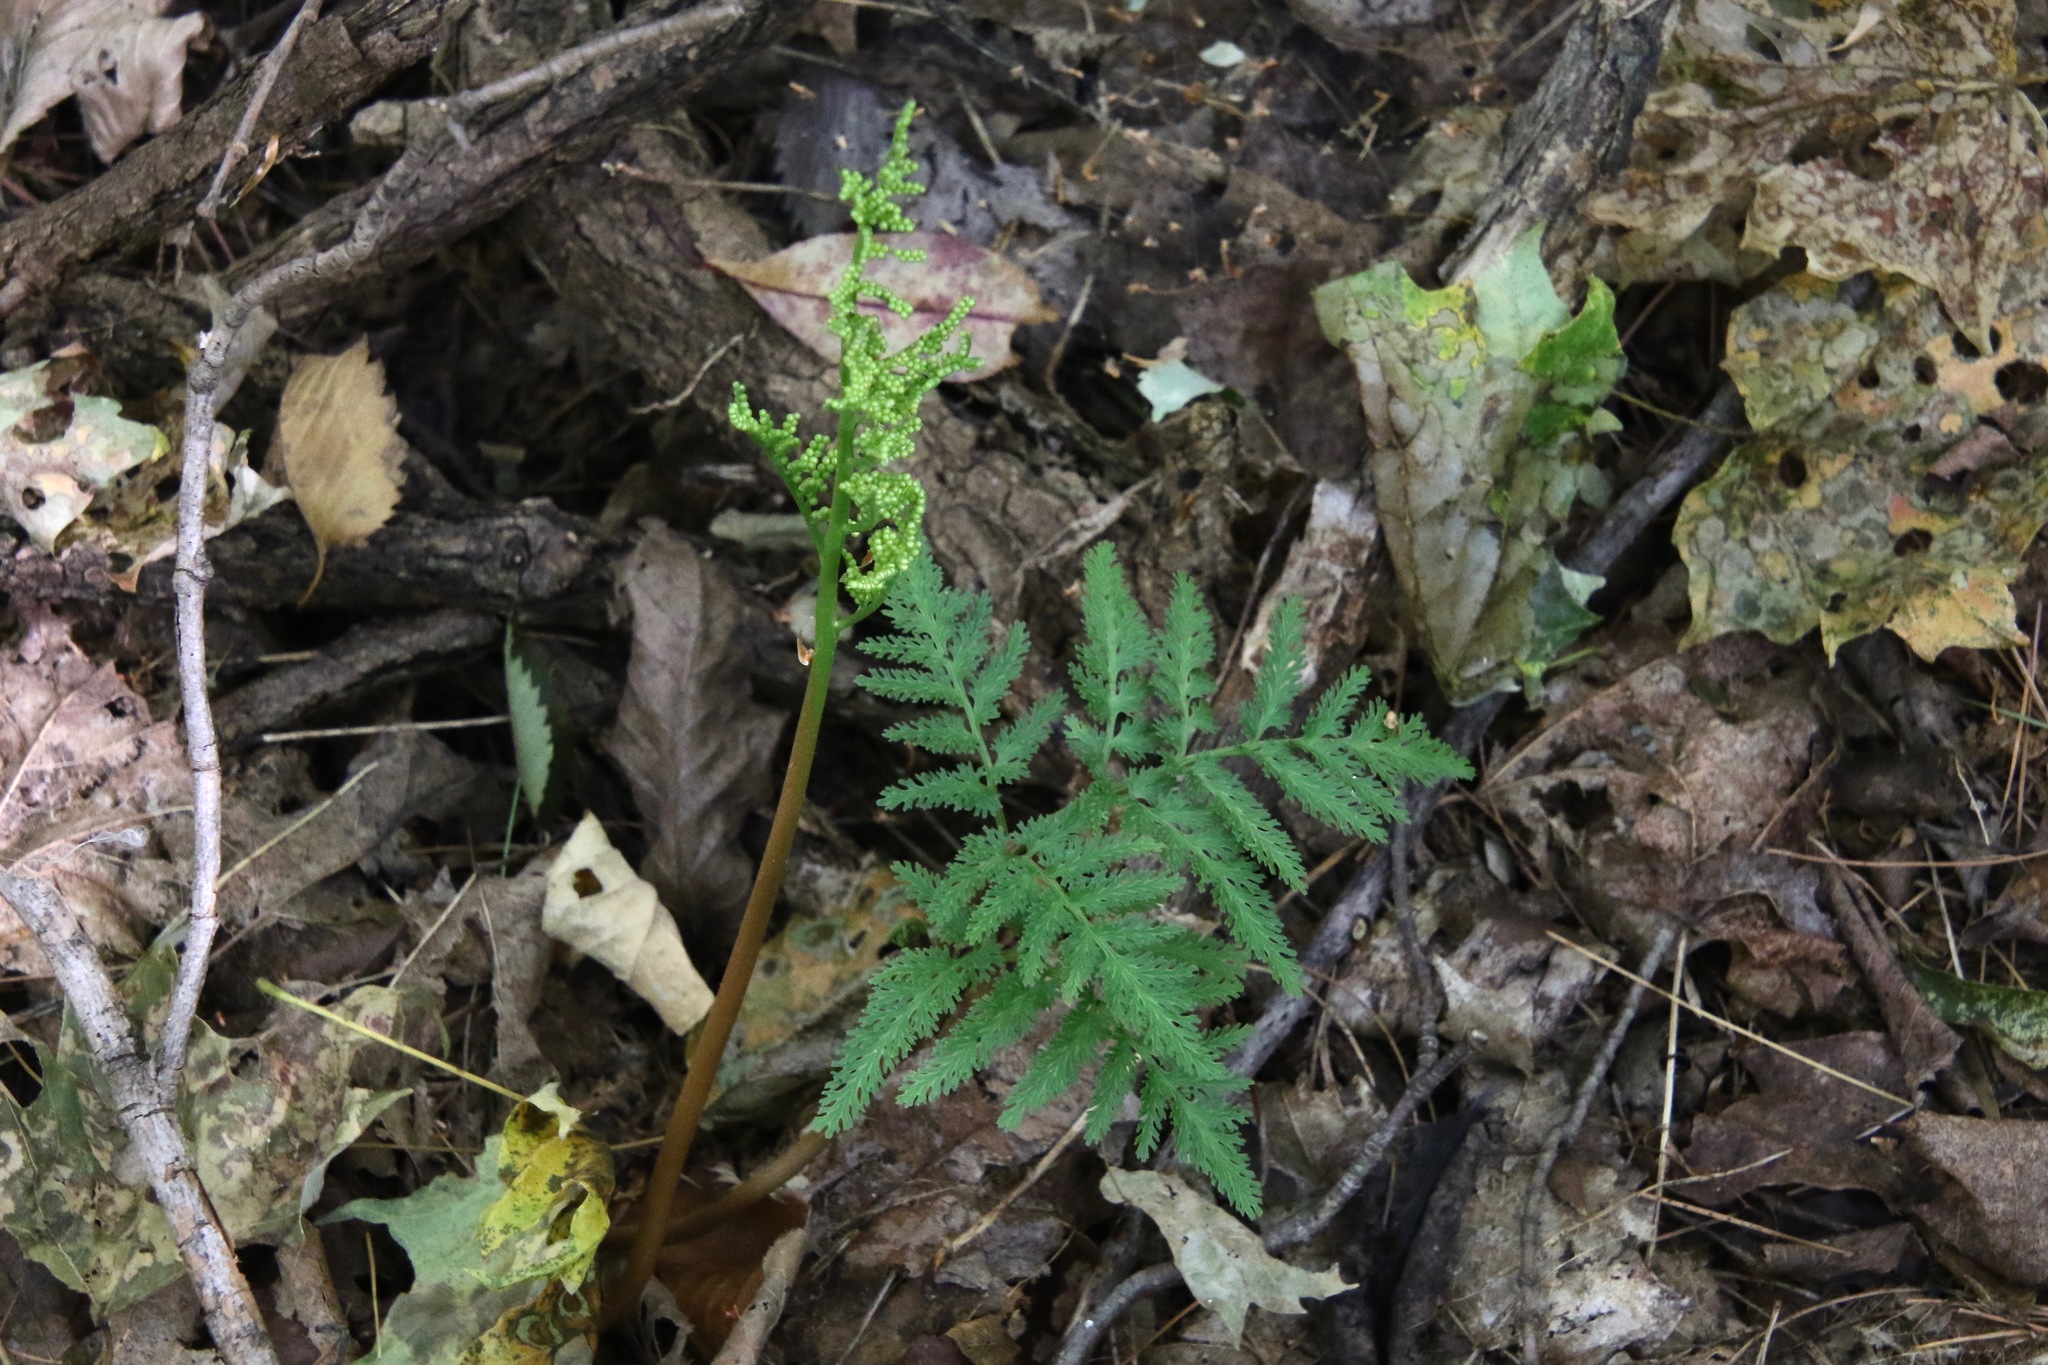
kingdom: Plantae
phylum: Tracheophyta
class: Polypodiopsida
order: Ophioglossales
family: Ophioglossaceae
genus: Sceptridium
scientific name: Sceptridium dissectum
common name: Cut-leaved grapefern
